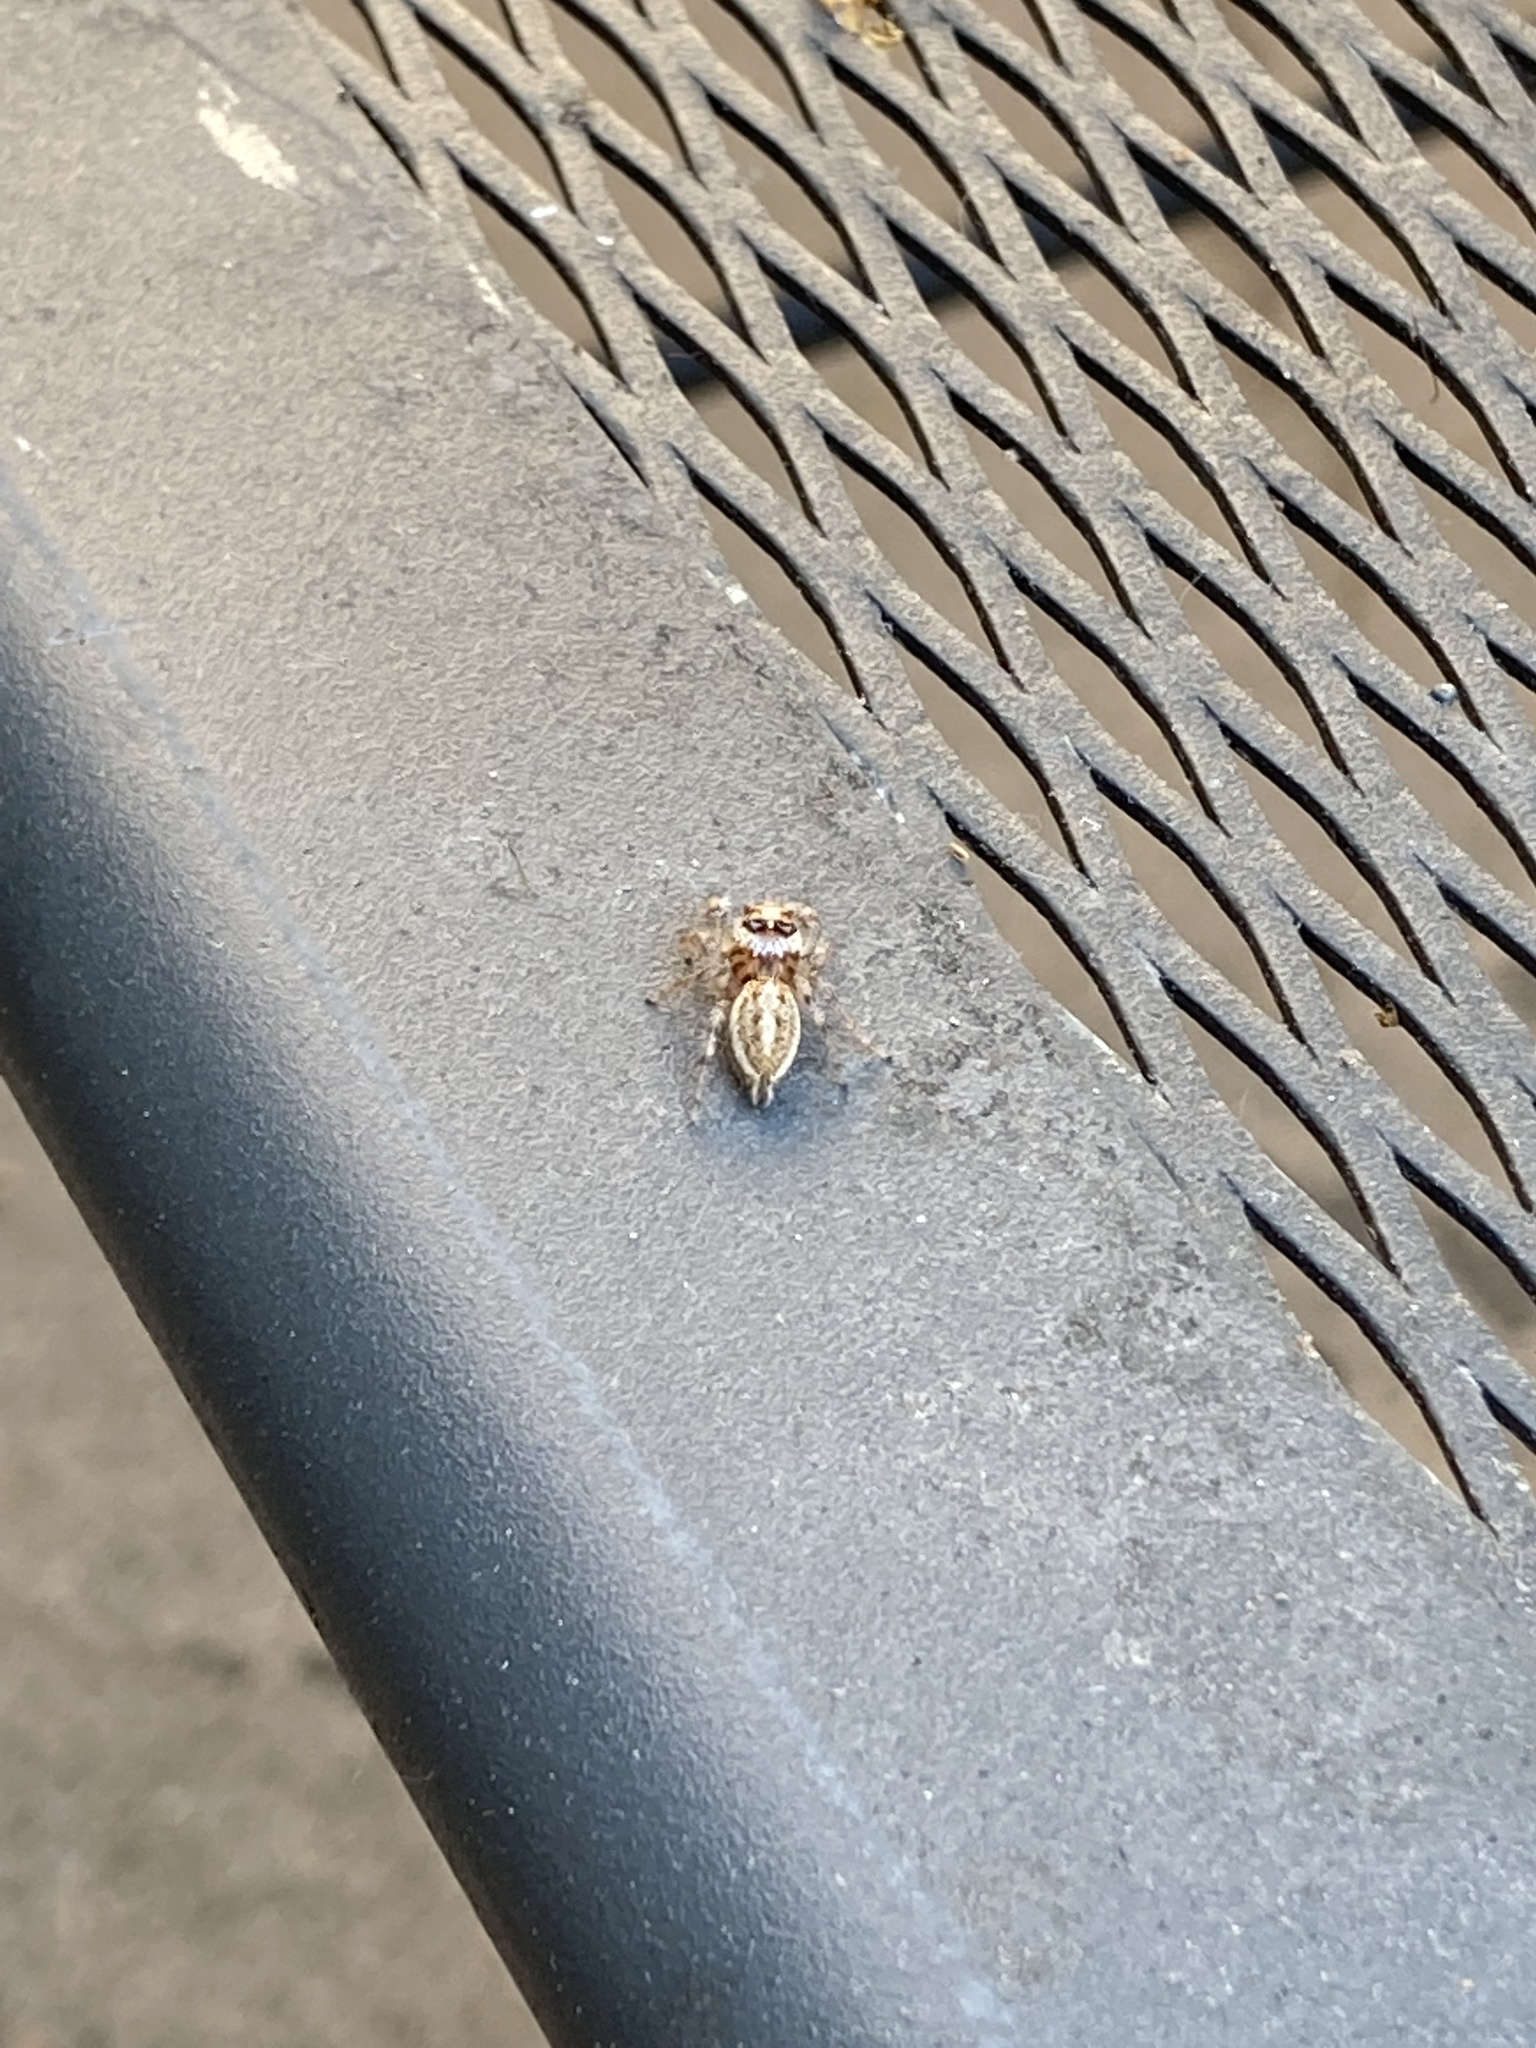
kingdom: Animalia
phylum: Arthropoda
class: Arachnida
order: Araneae
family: Salticidae
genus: Colonus
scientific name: Colonus hesperus
